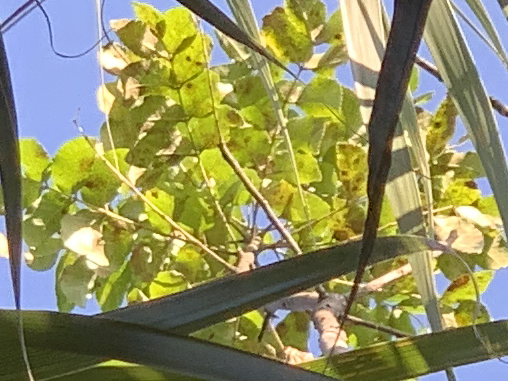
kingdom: Plantae
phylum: Tracheophyta
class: Magnoliopsida
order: Sapindales
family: Rutaceae
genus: Zanthoxylum
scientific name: Zanthoxylum clava-herculis
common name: Hercules'-club
